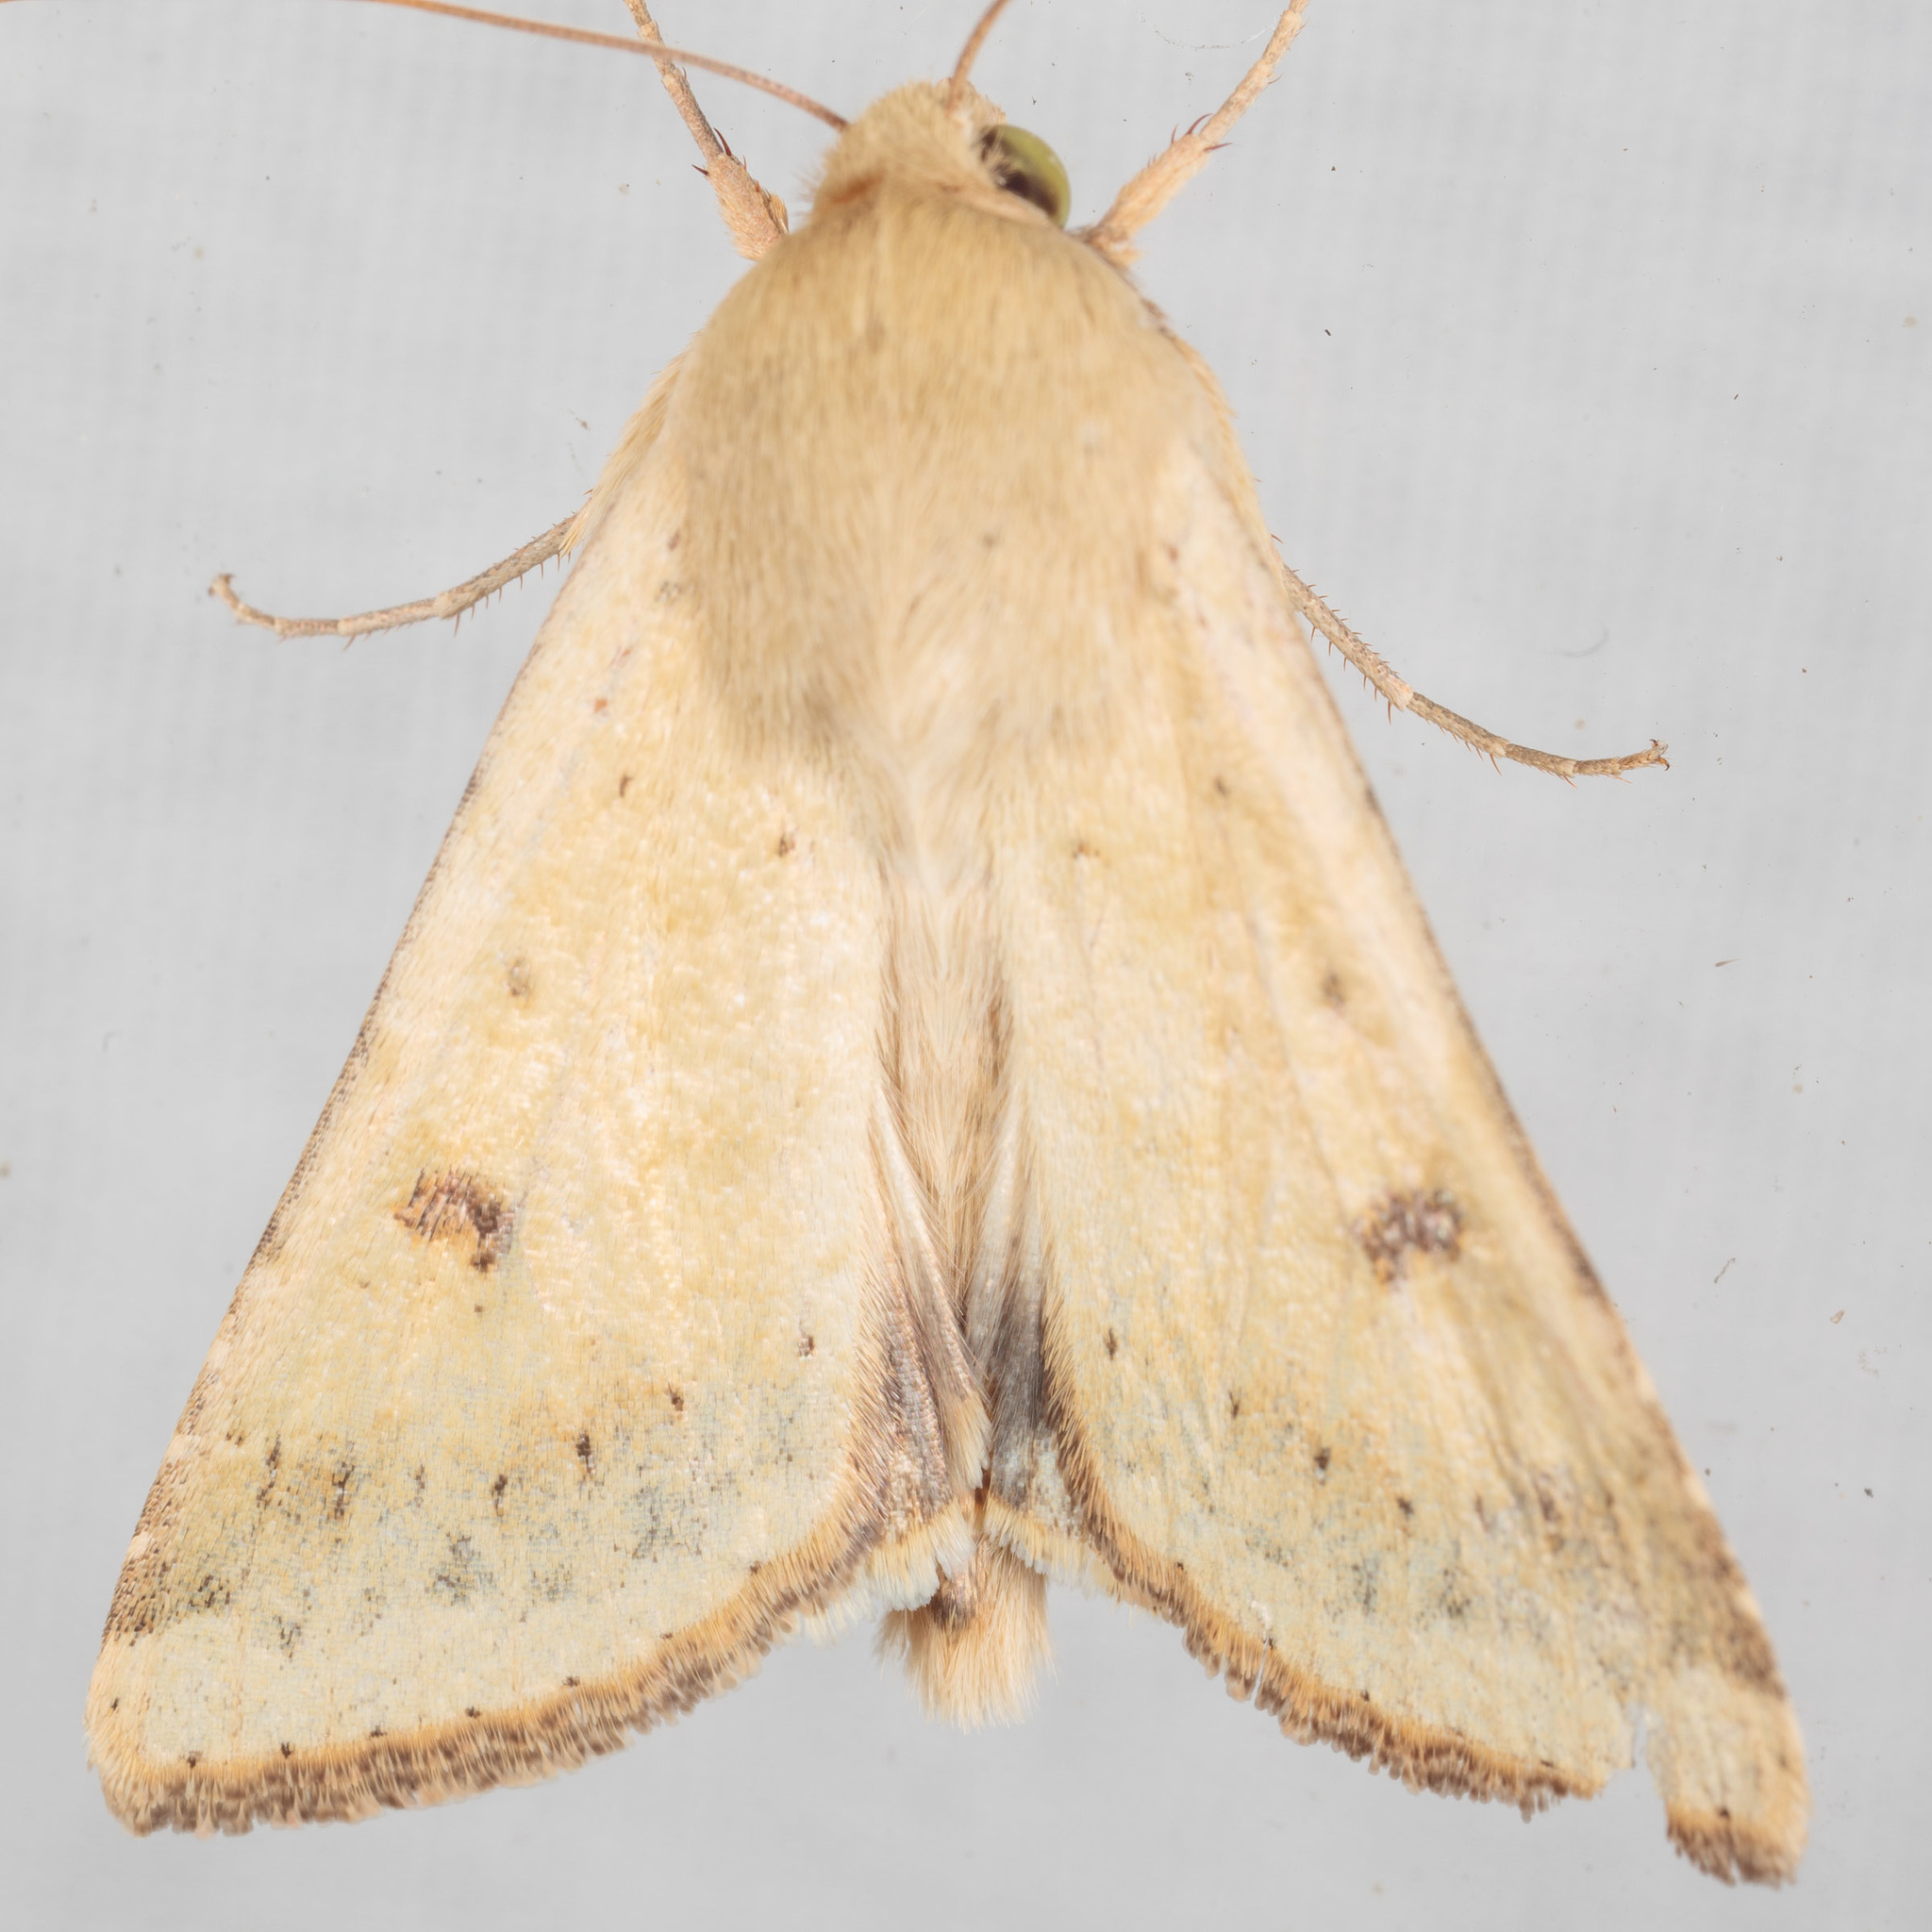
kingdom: Animalia
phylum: Arthropoda
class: Insecta
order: Lepidoptera
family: Noctuidae
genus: Helicoverpa
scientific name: Helicoverpa zea
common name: Bollworm
